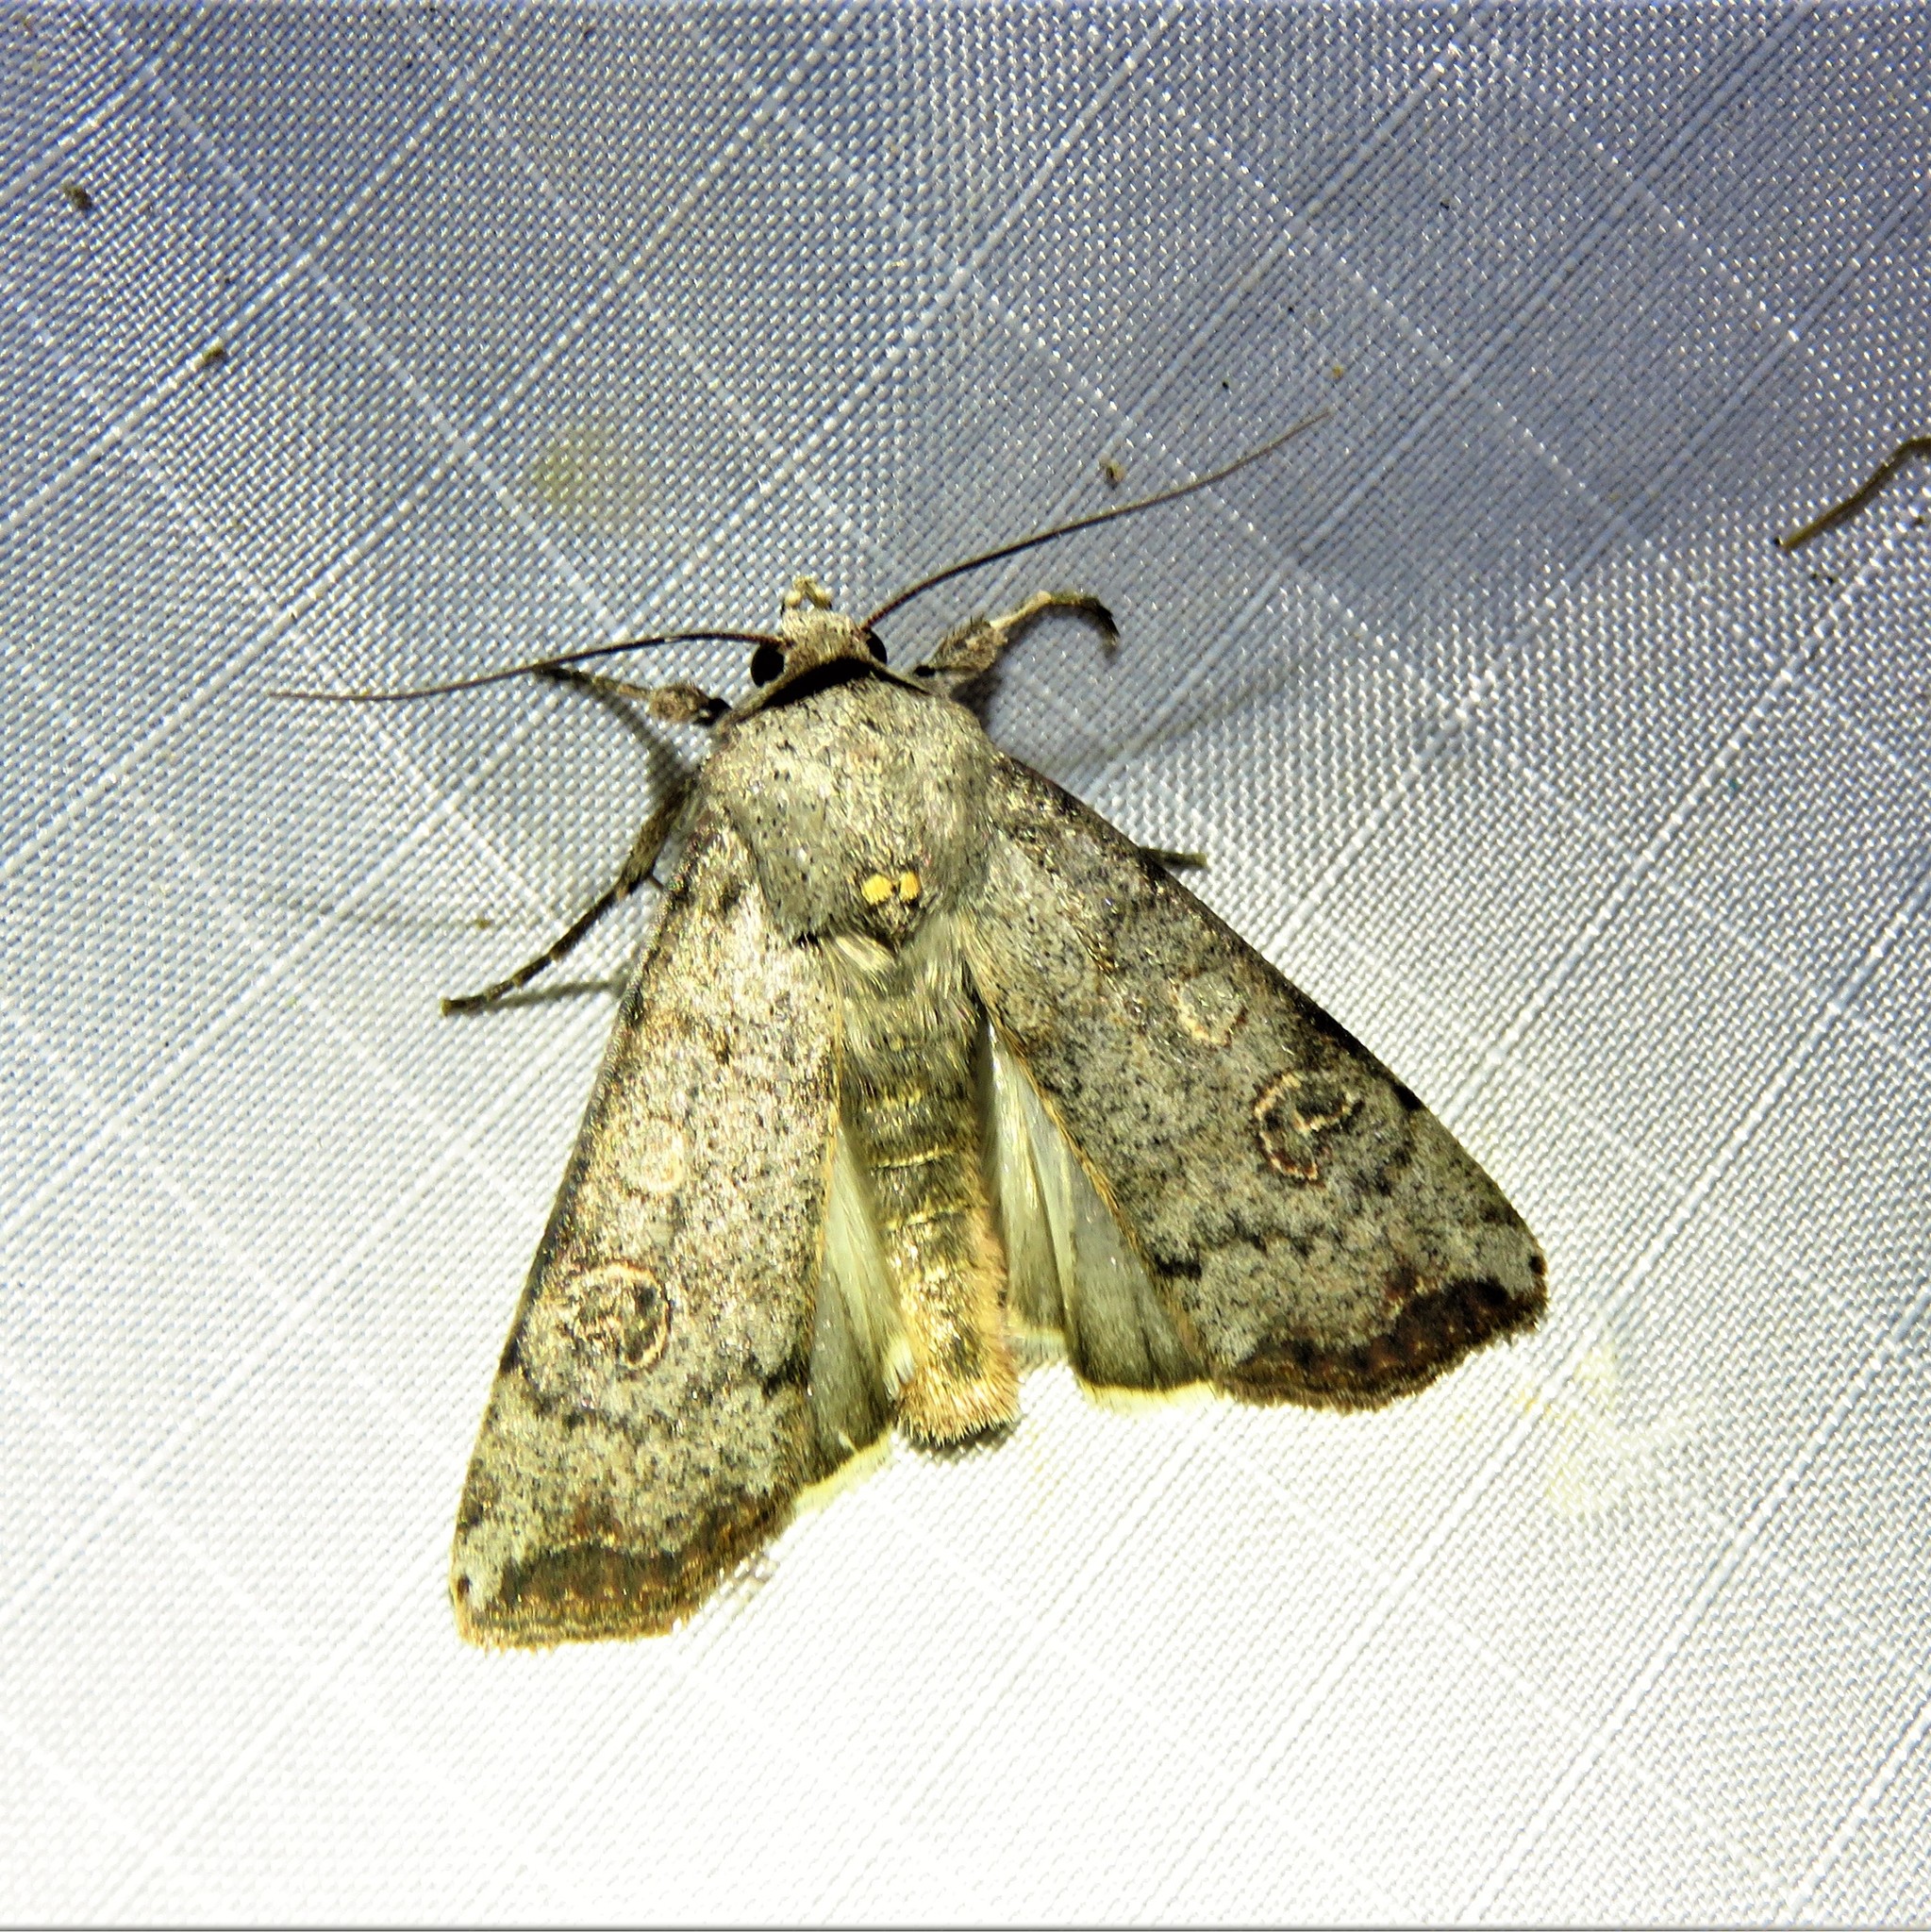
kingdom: Animalia
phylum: Arthropoda
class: Insecta
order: Lepidoptera
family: Noctuidae
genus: Anicla
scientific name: Anicla infecta
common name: Green cutworm
